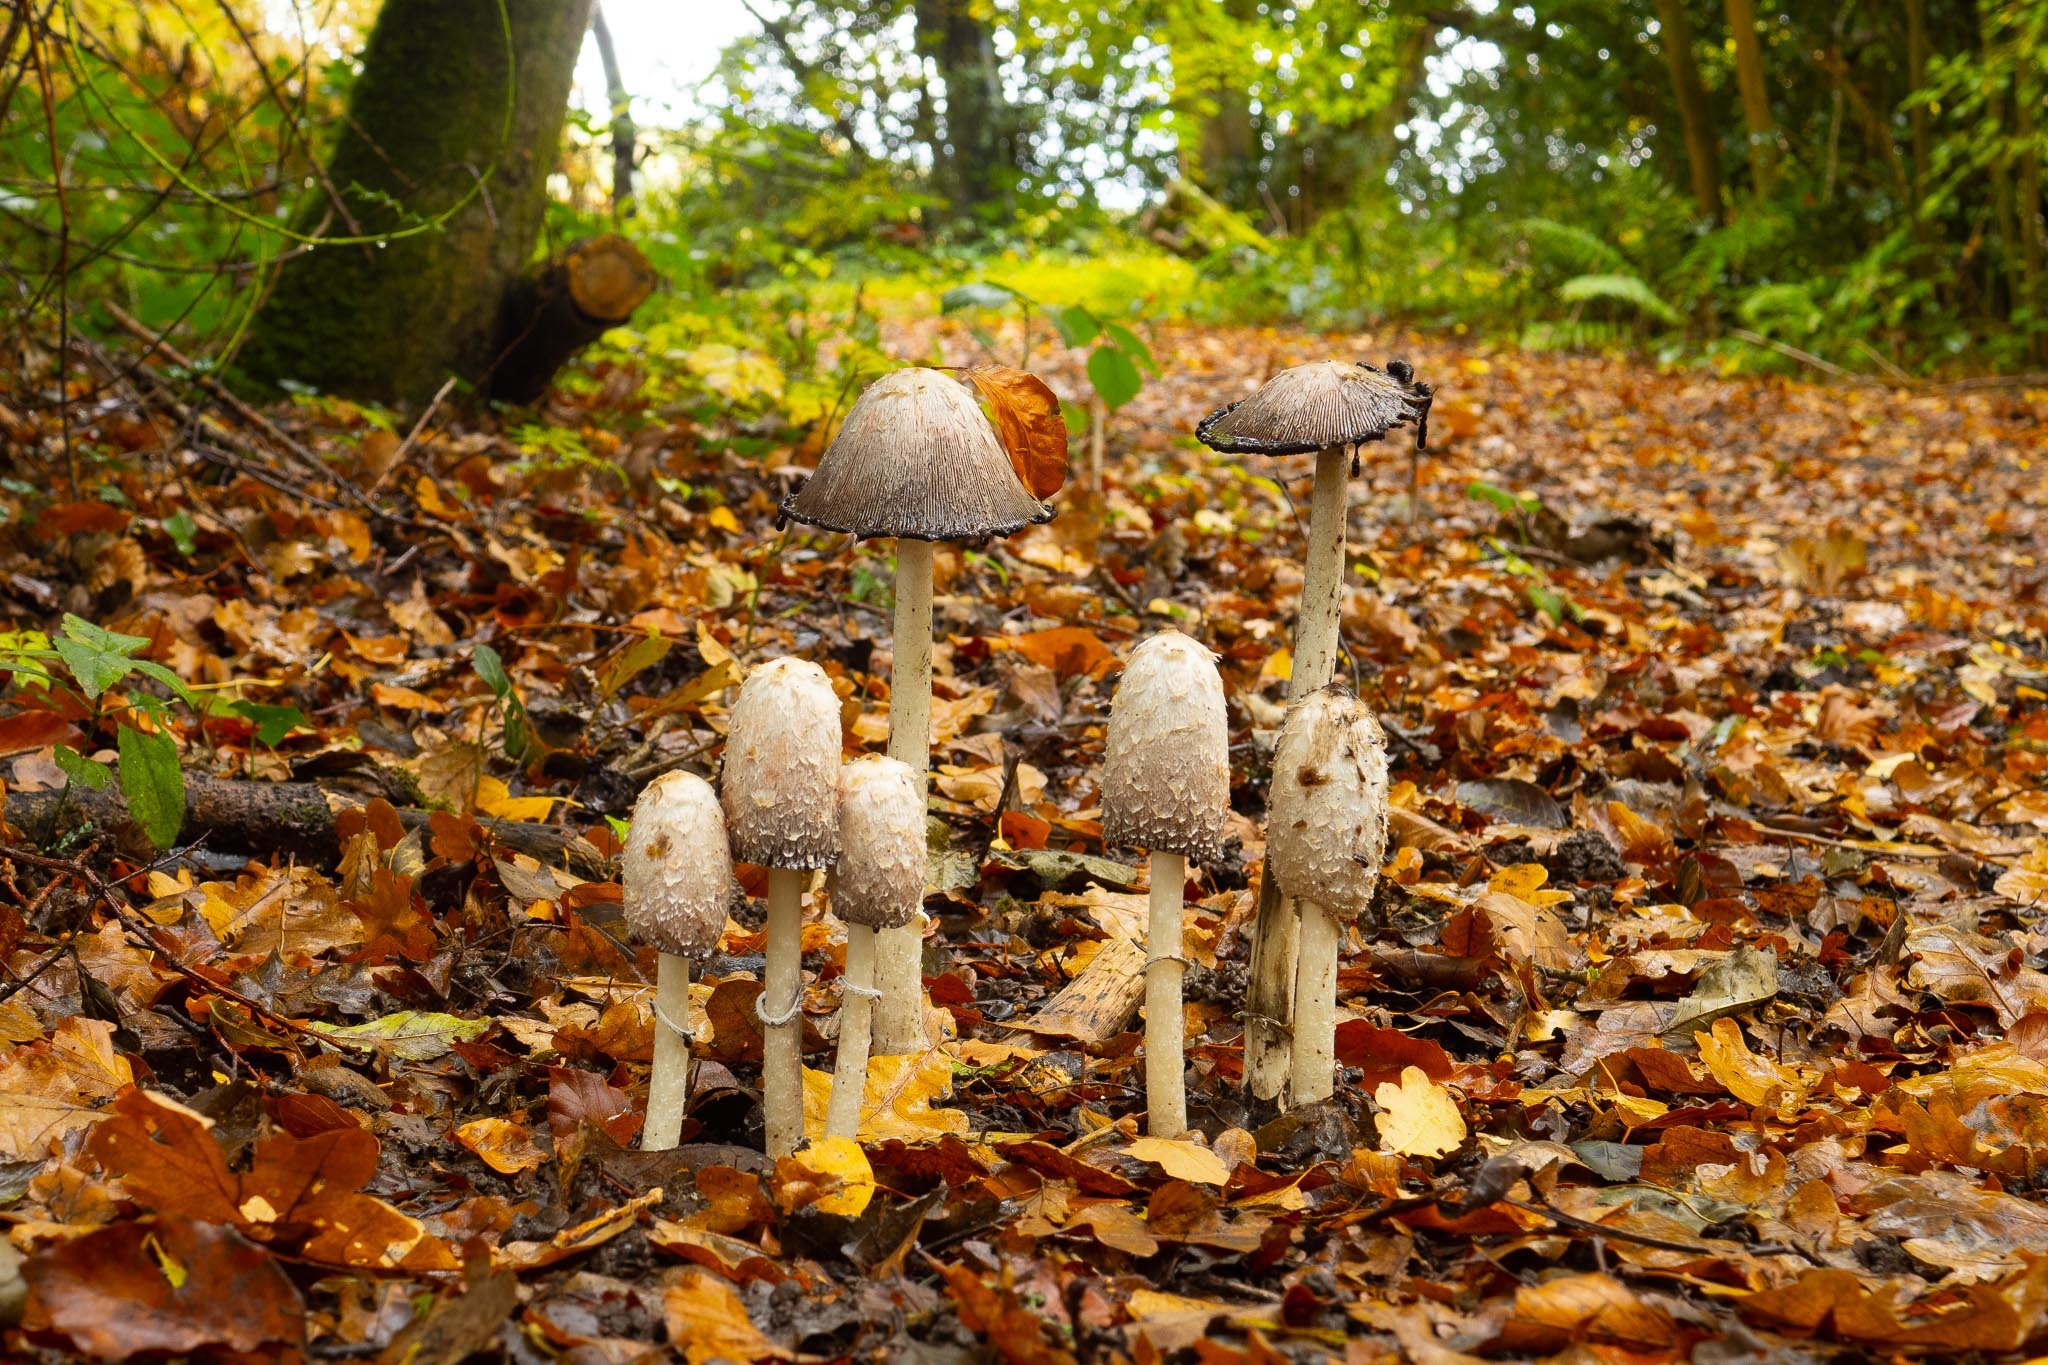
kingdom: Fungi
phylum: Basidiomycota
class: Agaricomycetes
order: Agaricales
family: Agaricaceae
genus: Coprinus
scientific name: Coprinus comatus
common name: Lawyer's wig
